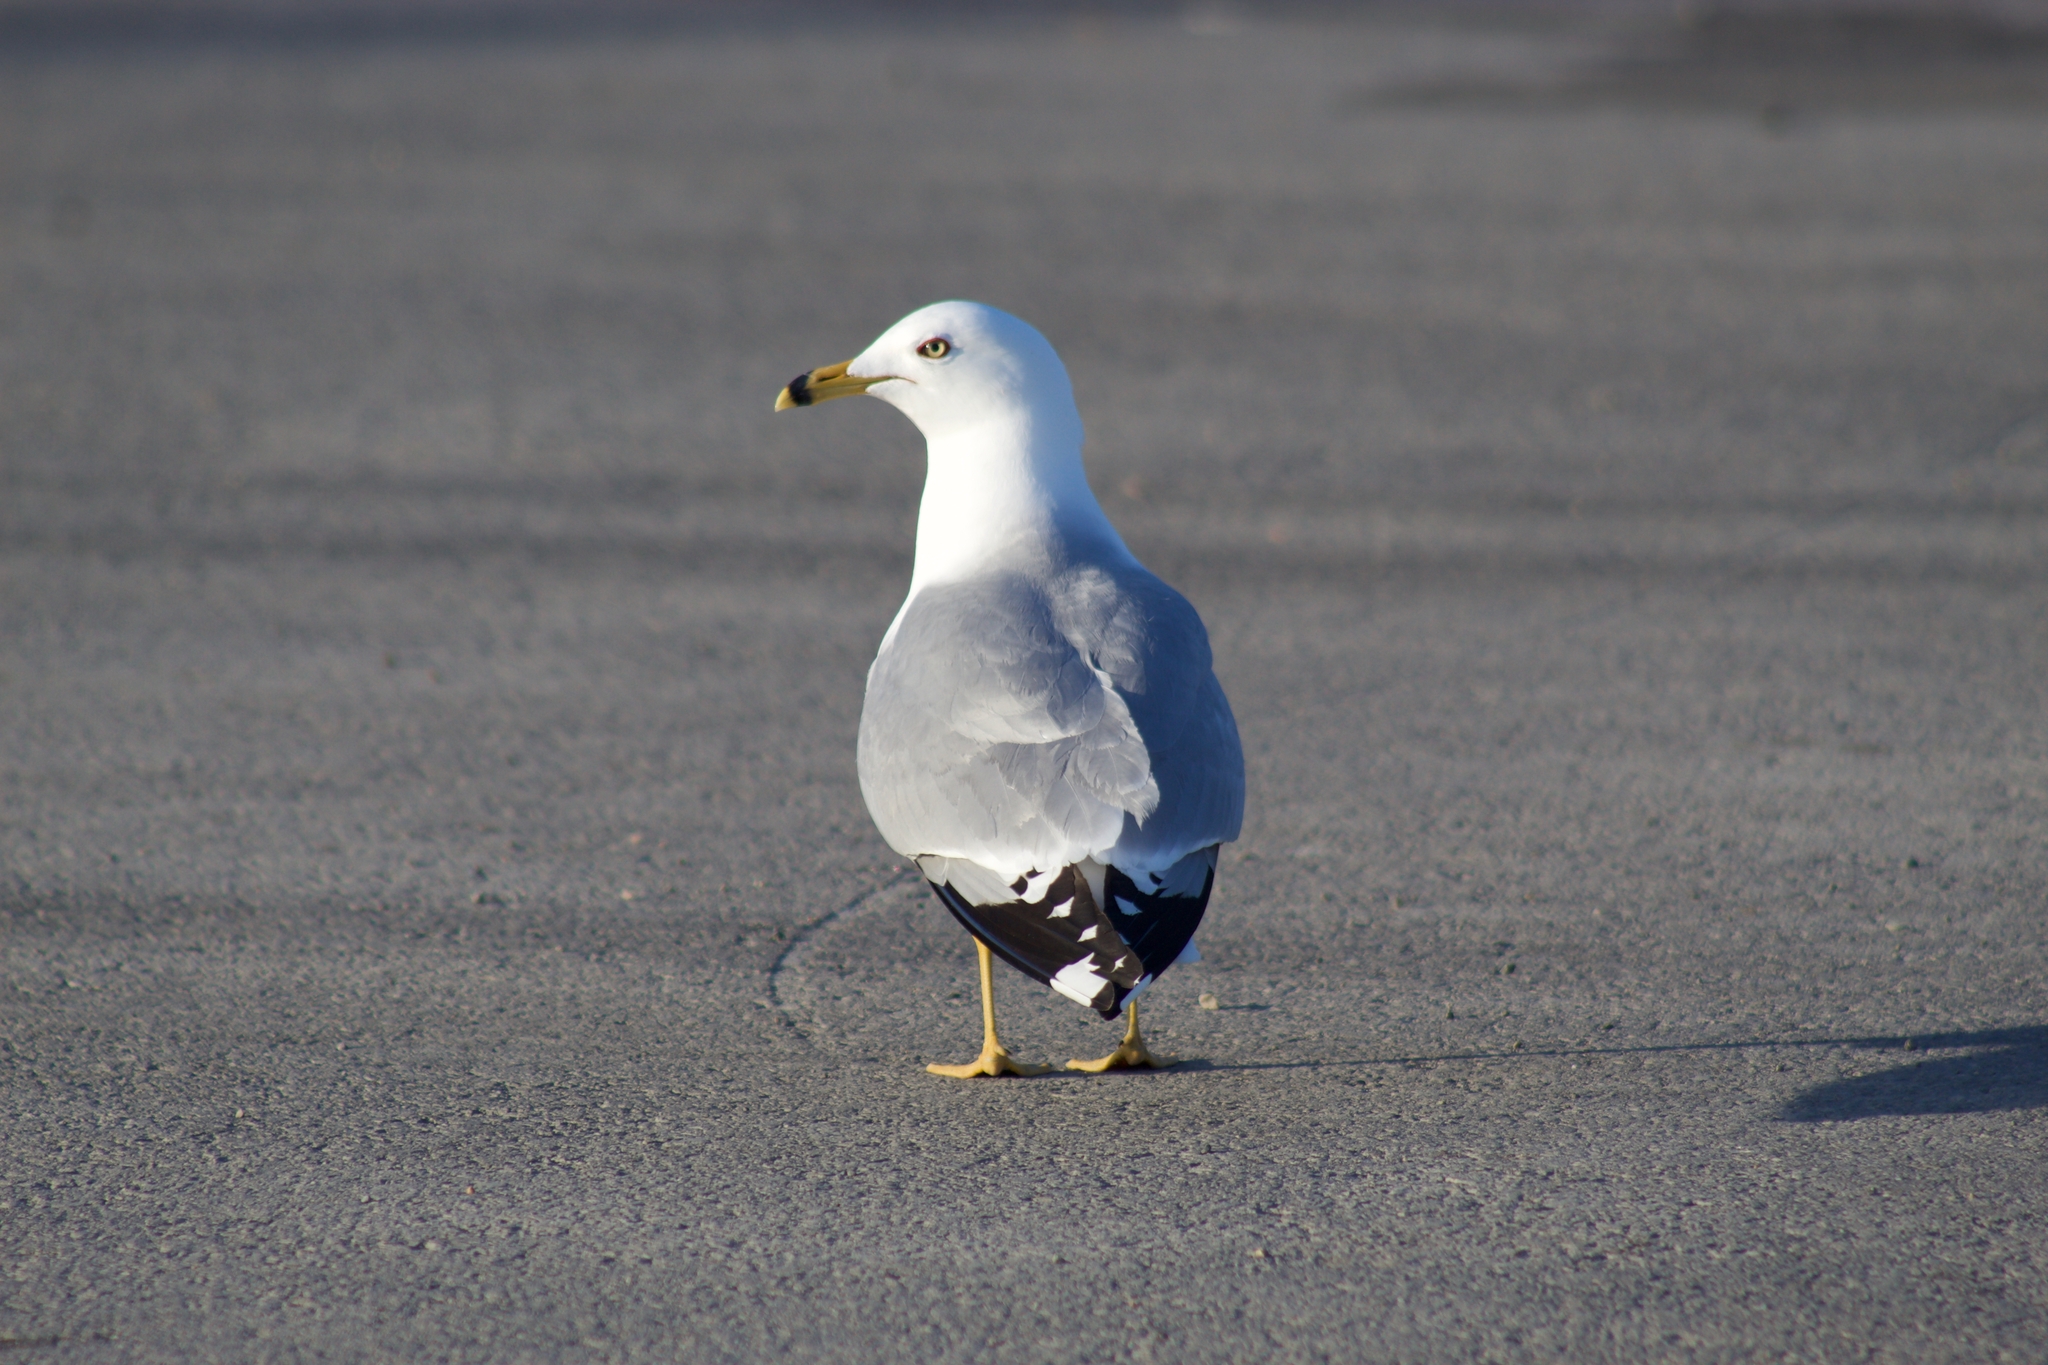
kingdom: Animalia
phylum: Chordata
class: Aves
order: Charadriiformes
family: Laridae
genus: Larus
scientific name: Larus delawarensis
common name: Ring-billed gull
